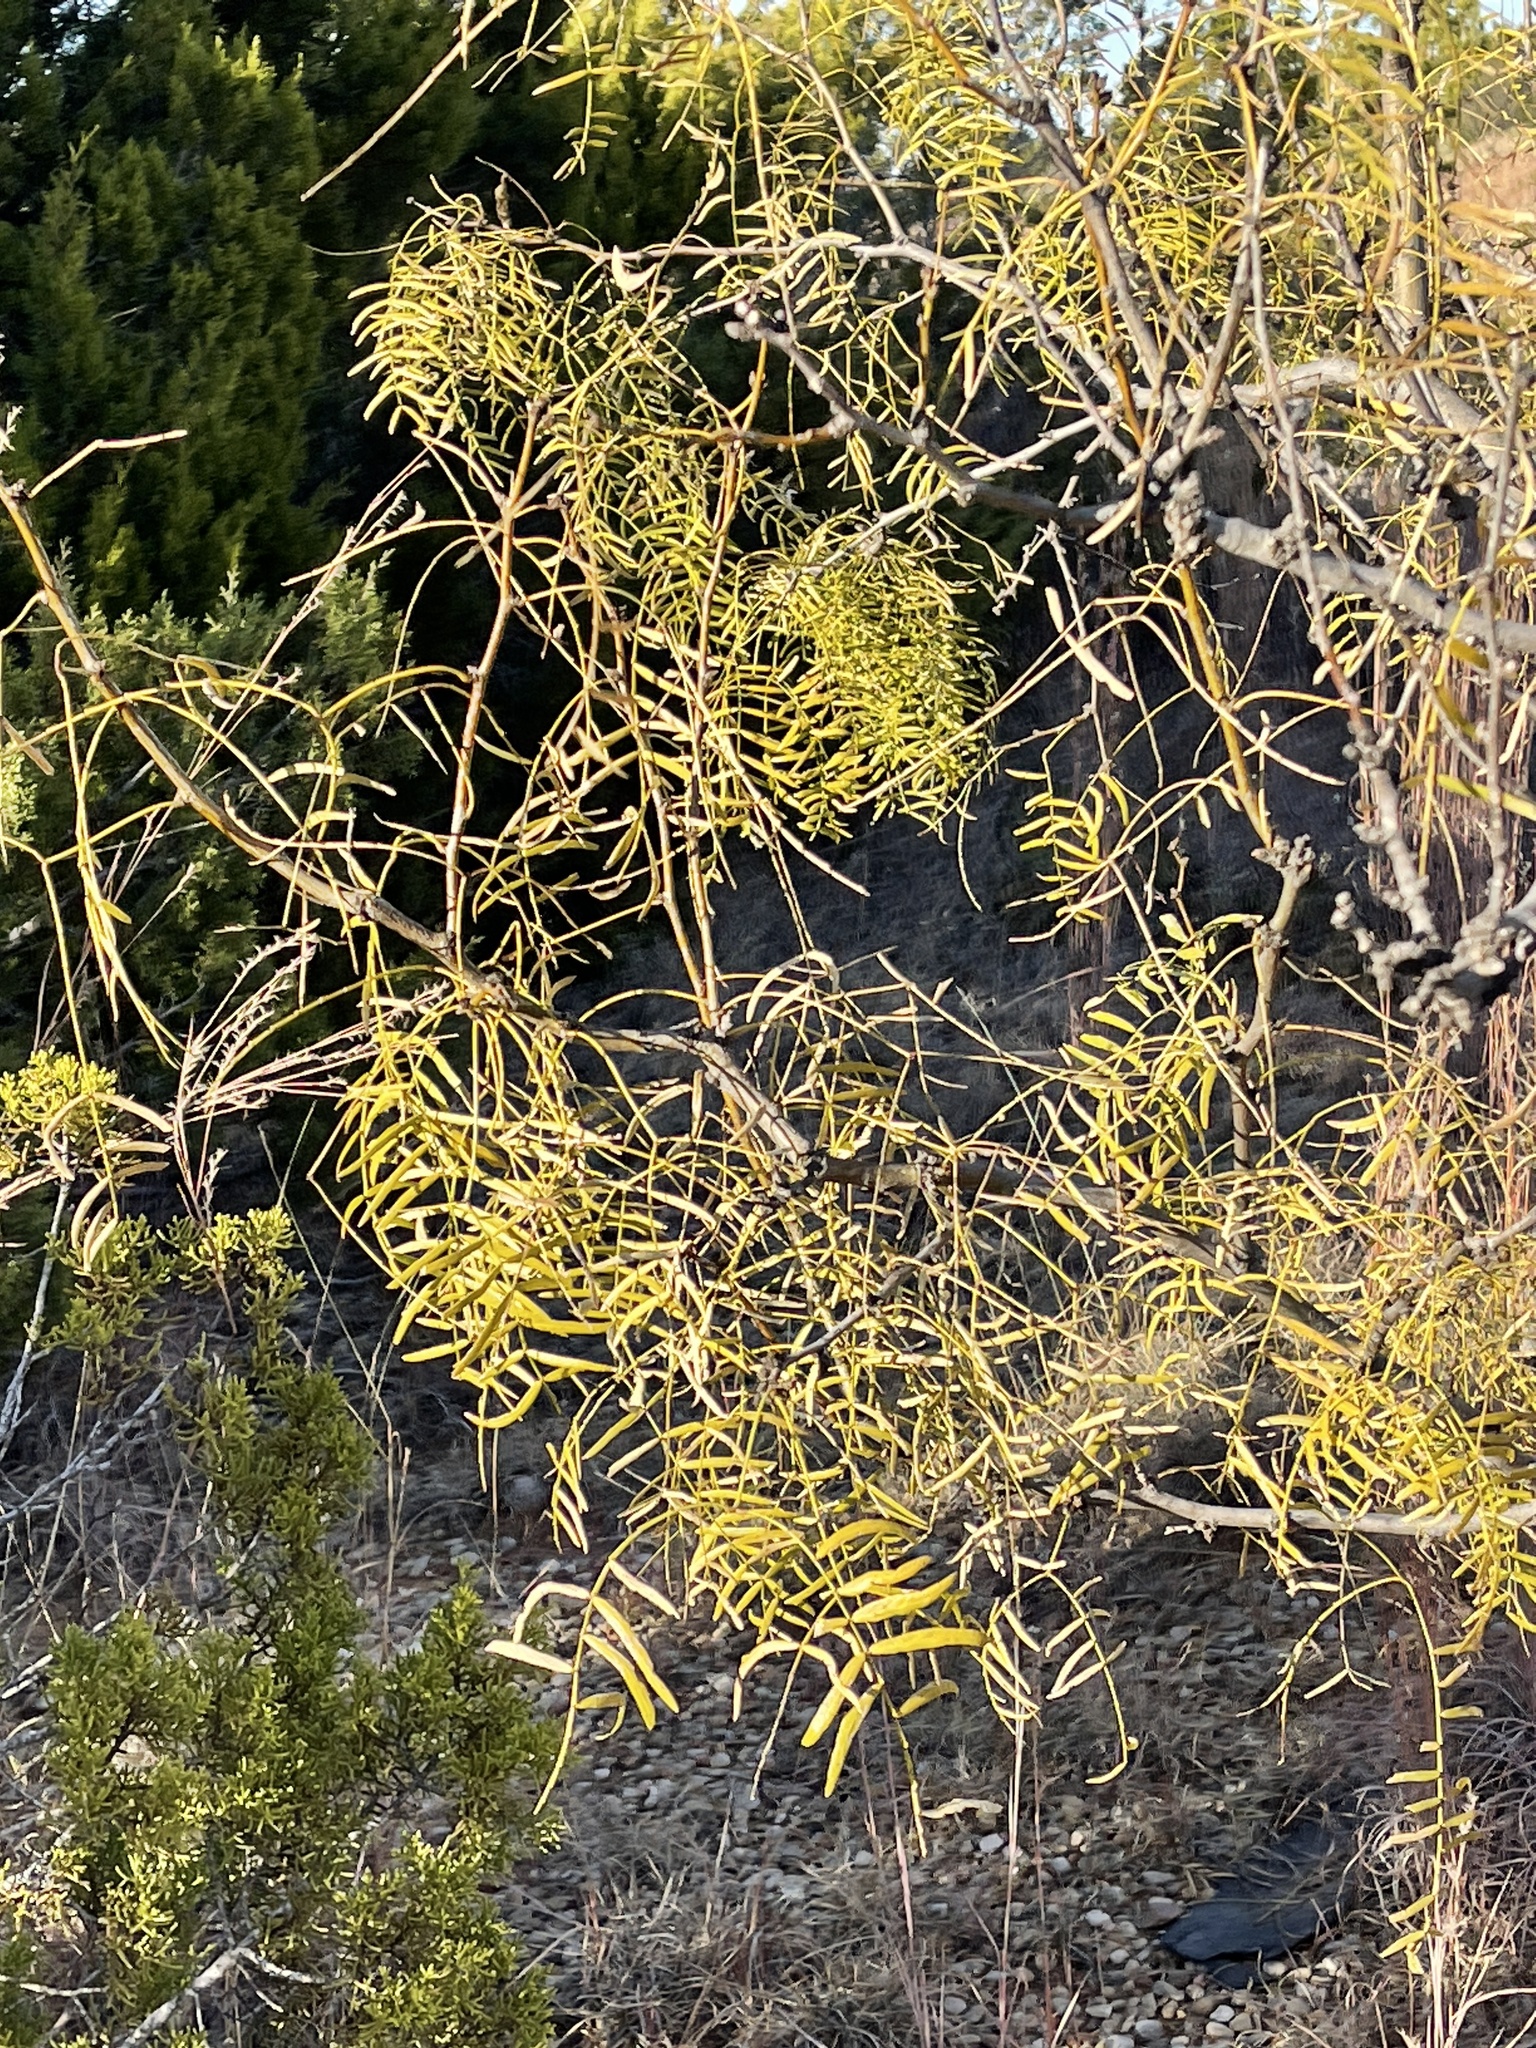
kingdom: Plantae
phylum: Tracheophyta
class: Magnoliopsida
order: Fabales
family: Fabaceae
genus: Prosopis
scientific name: Prosopis glandulosa
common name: Honey mesquite
